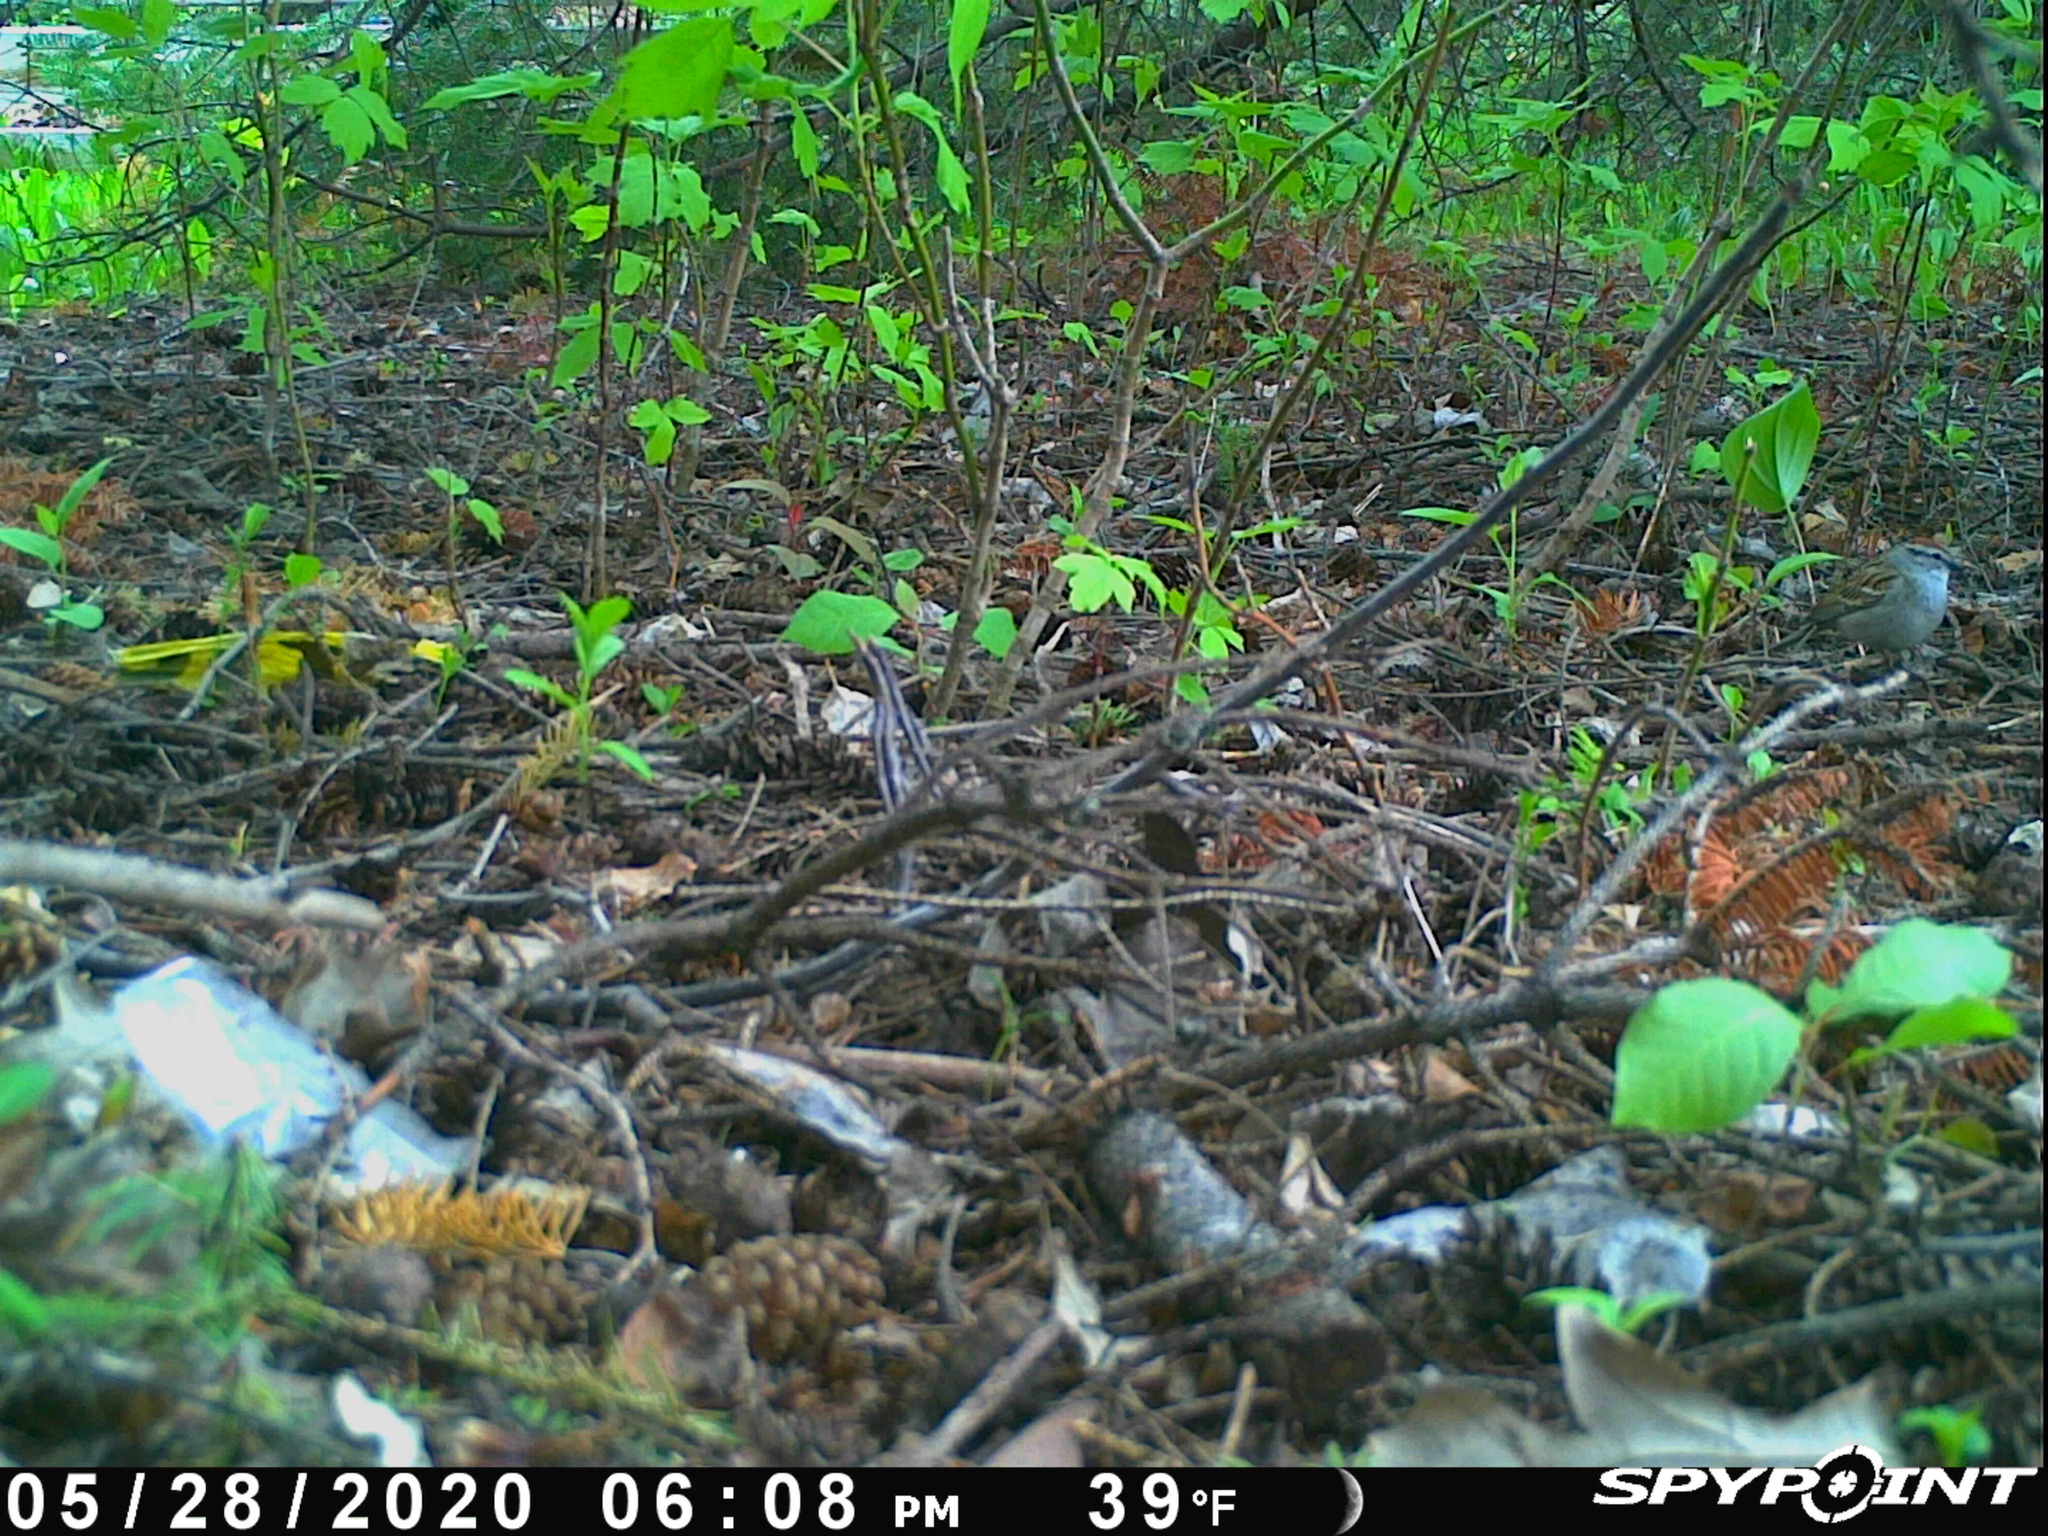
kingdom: Animalia
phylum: Chordata
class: Aves
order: Passeriformes
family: Passerellidae
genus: Spizella
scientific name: Spizella passerina
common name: Chipping sparrow
